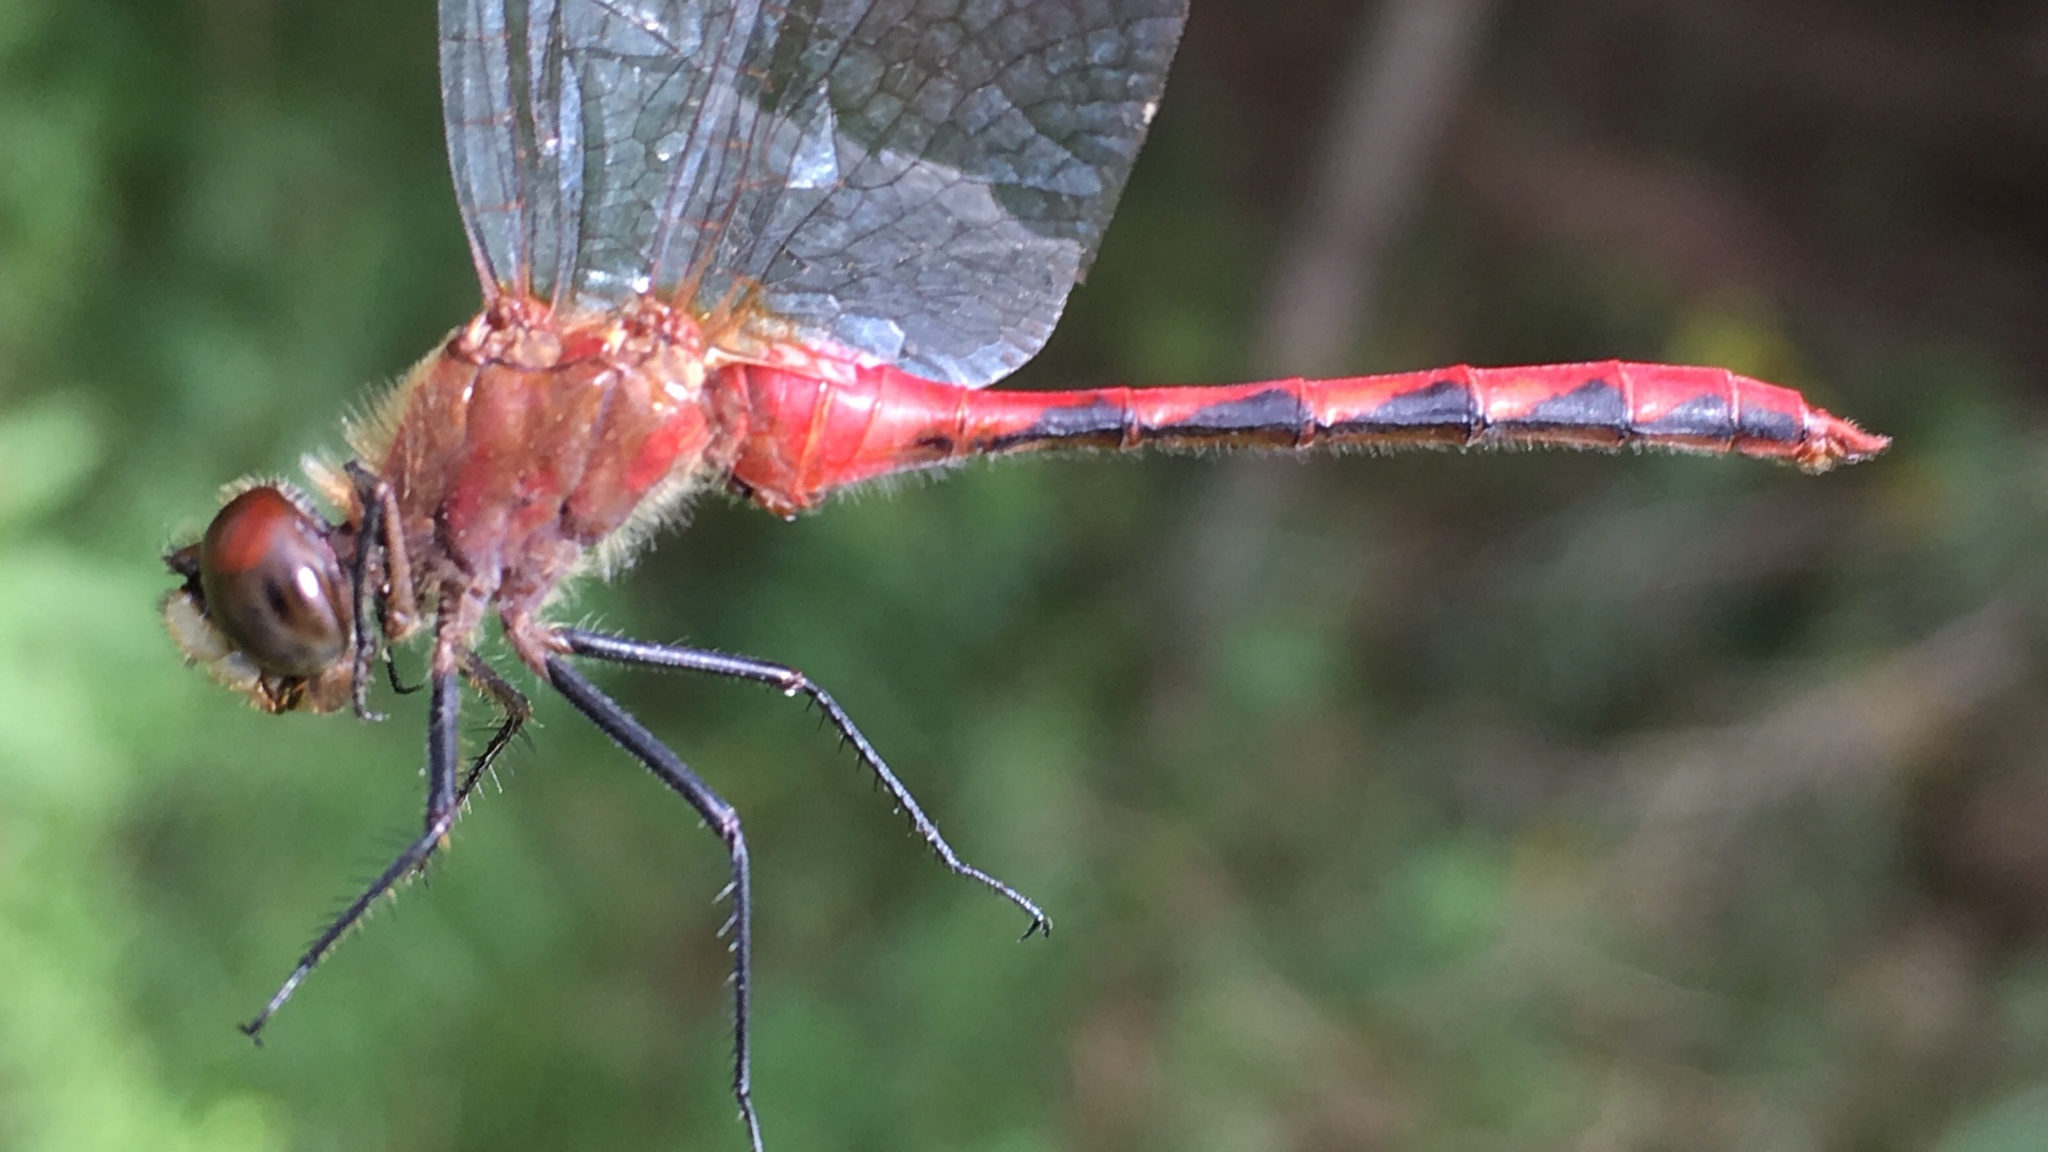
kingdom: Animalia
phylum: Arthropoda
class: Insecta
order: Odonata
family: Libellulidae
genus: Sympetrum
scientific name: Sympetrum obtrusum
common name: White-faced meadowhawk
